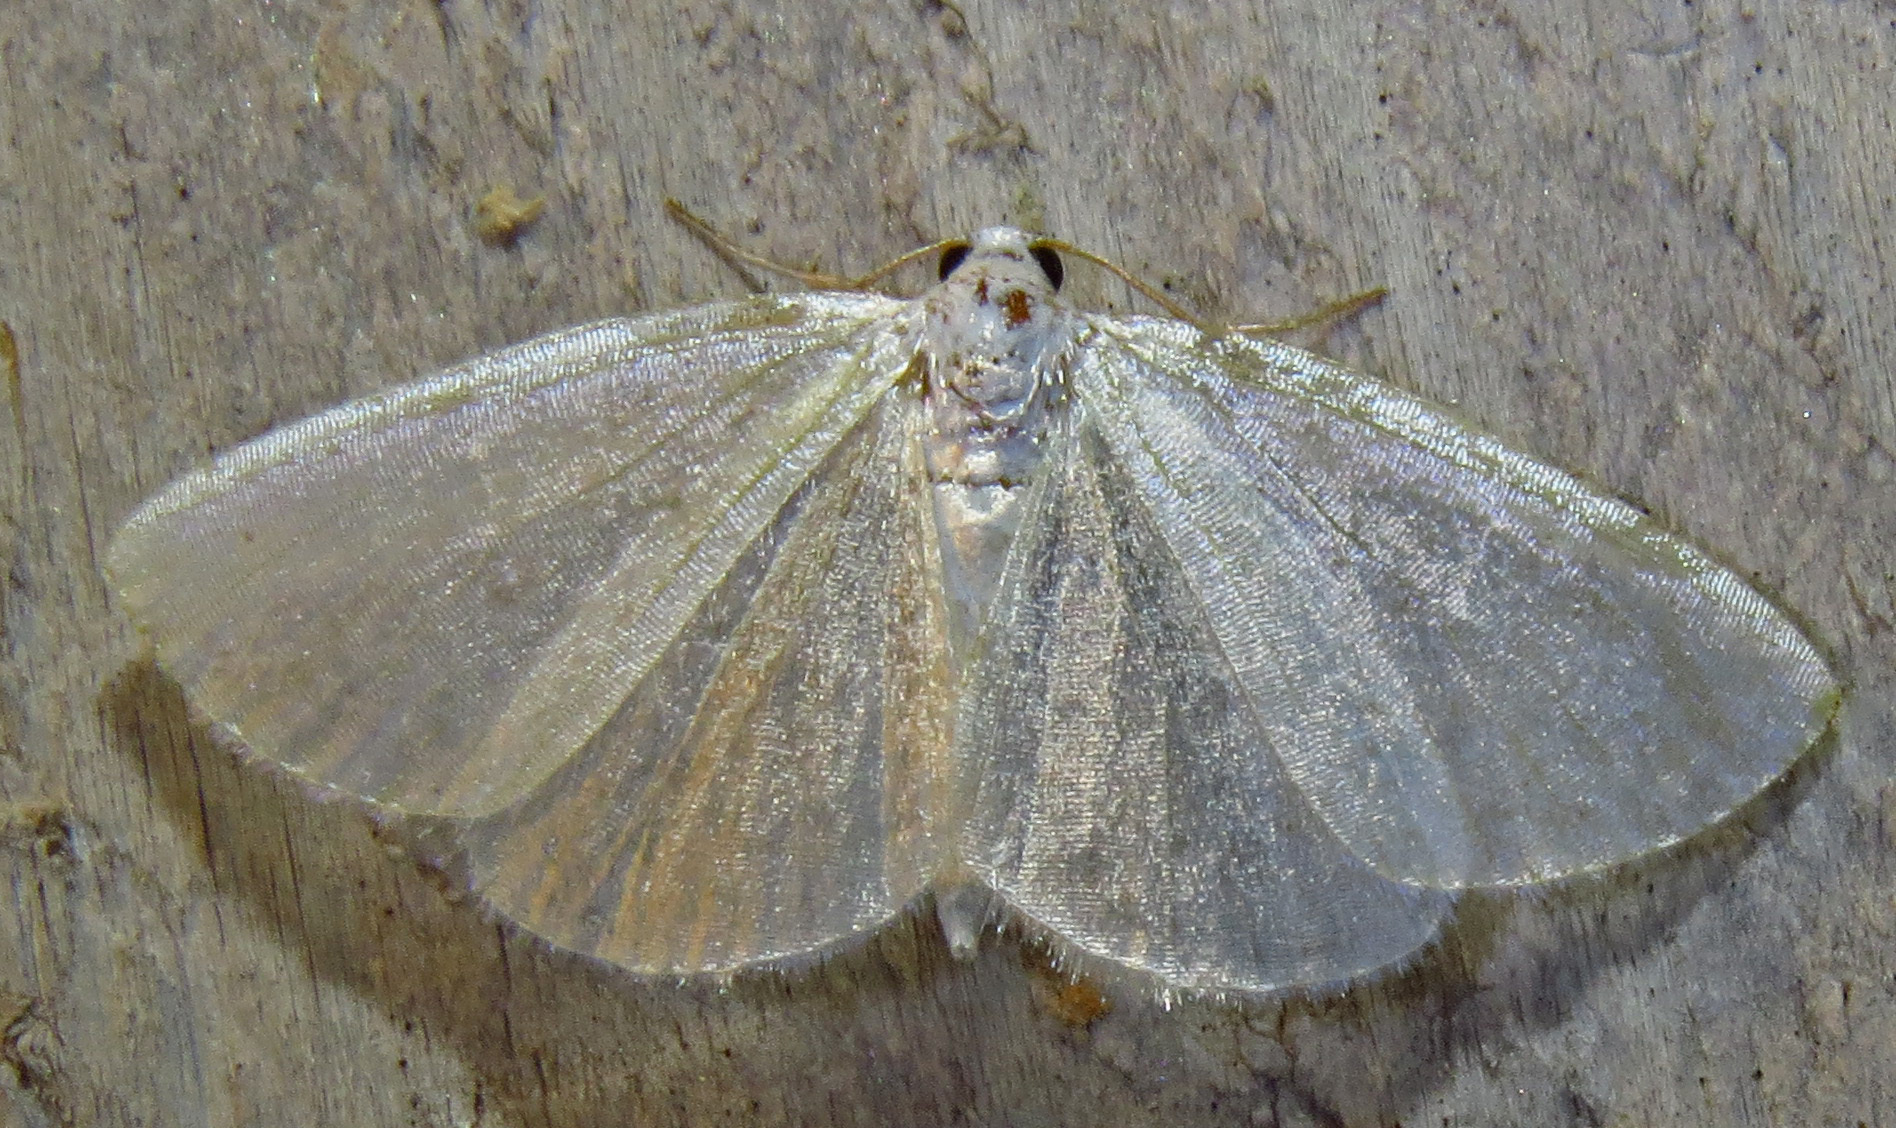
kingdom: Animalia
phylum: Arthropoda
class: Insecta
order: Lepidoptera
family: Geometridae
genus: Lomographa
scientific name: Lomographa vestaliata
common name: White spring moth
